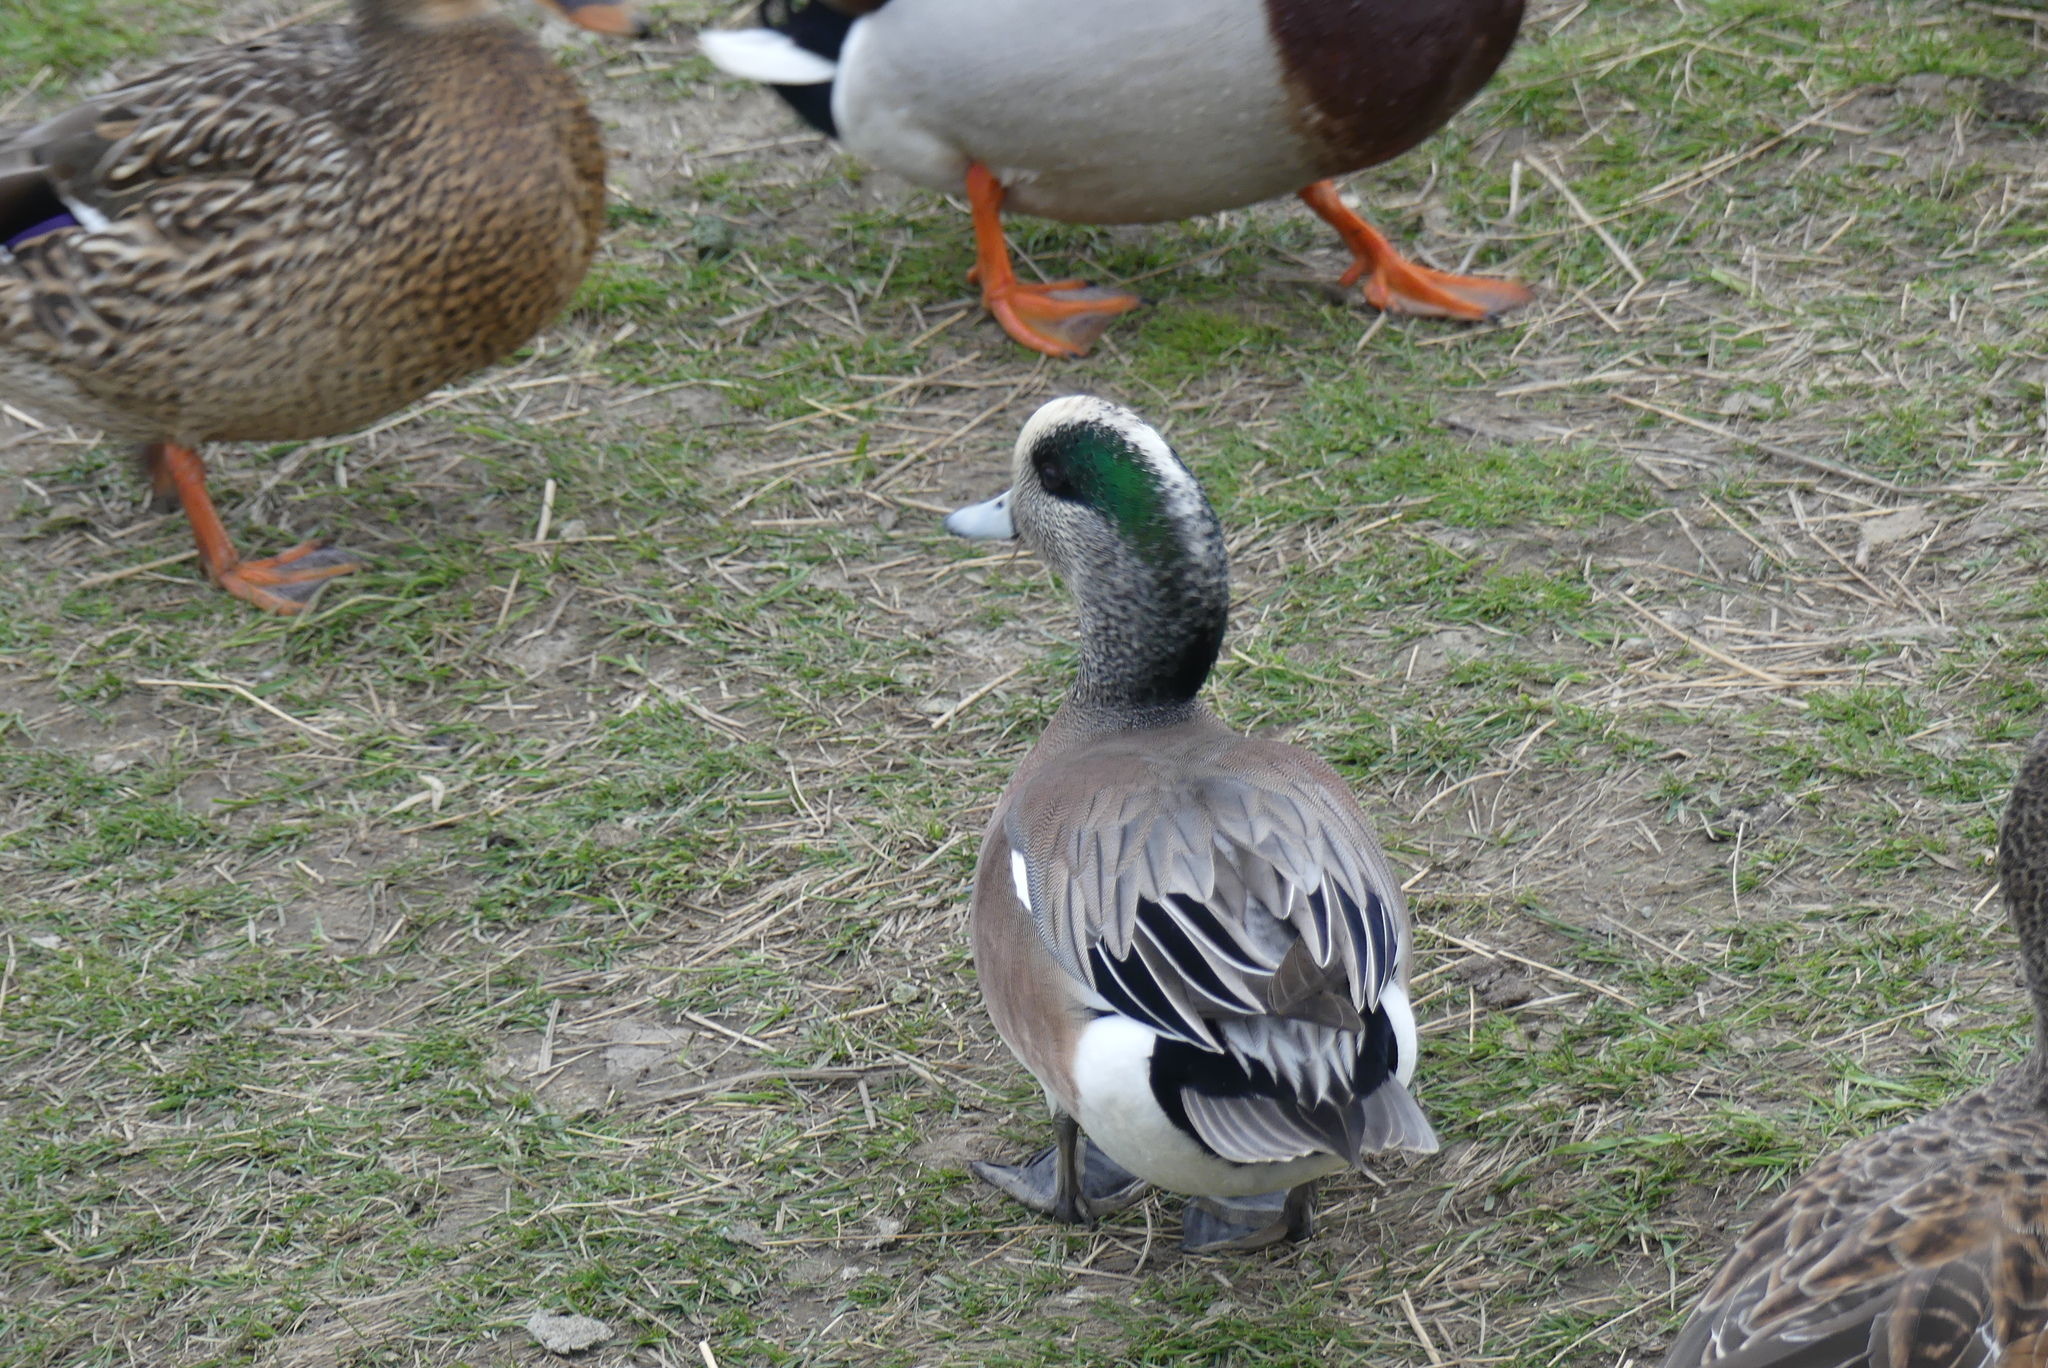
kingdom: Animalia
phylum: Chordata
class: Aves
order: Anseriformes
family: Anatidae
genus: Mareca
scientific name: Mareca americana
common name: American wigeon
